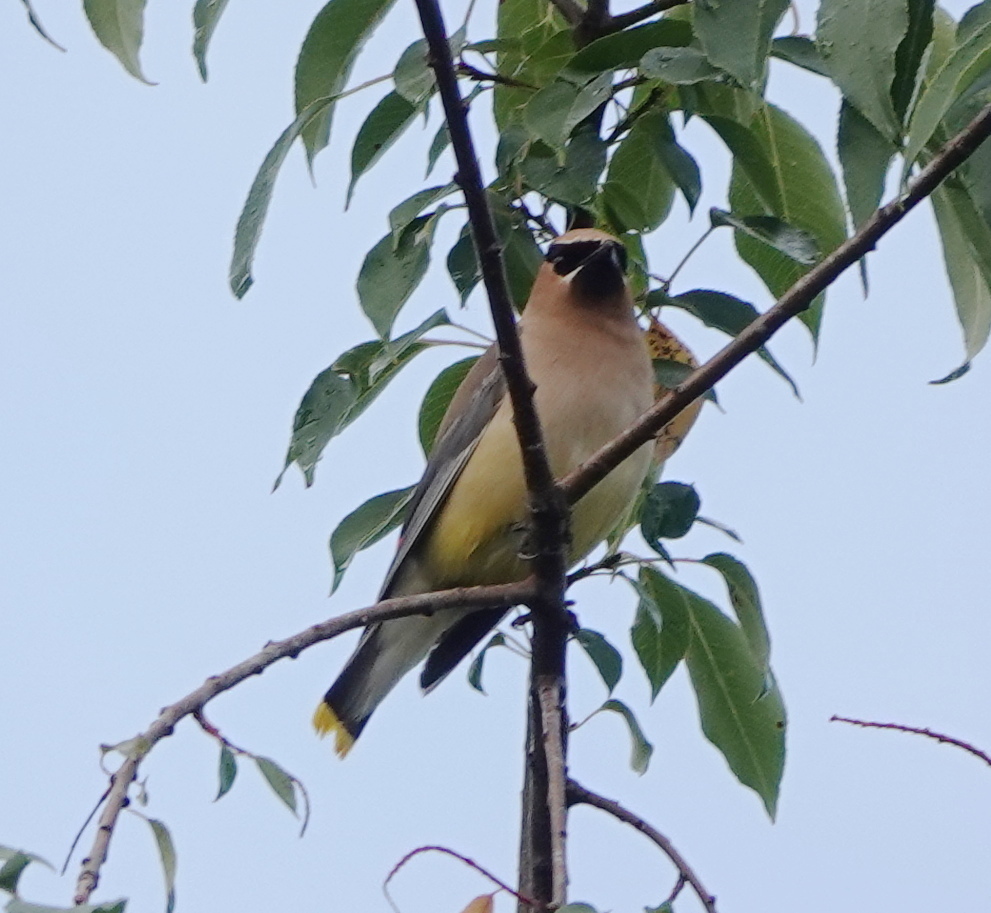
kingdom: Animalia
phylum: Chordata
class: Aves
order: Passeriformes
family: Bombycillidae
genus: Bombycilla
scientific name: Bombycilla cedrorum
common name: Cedar waxwing
